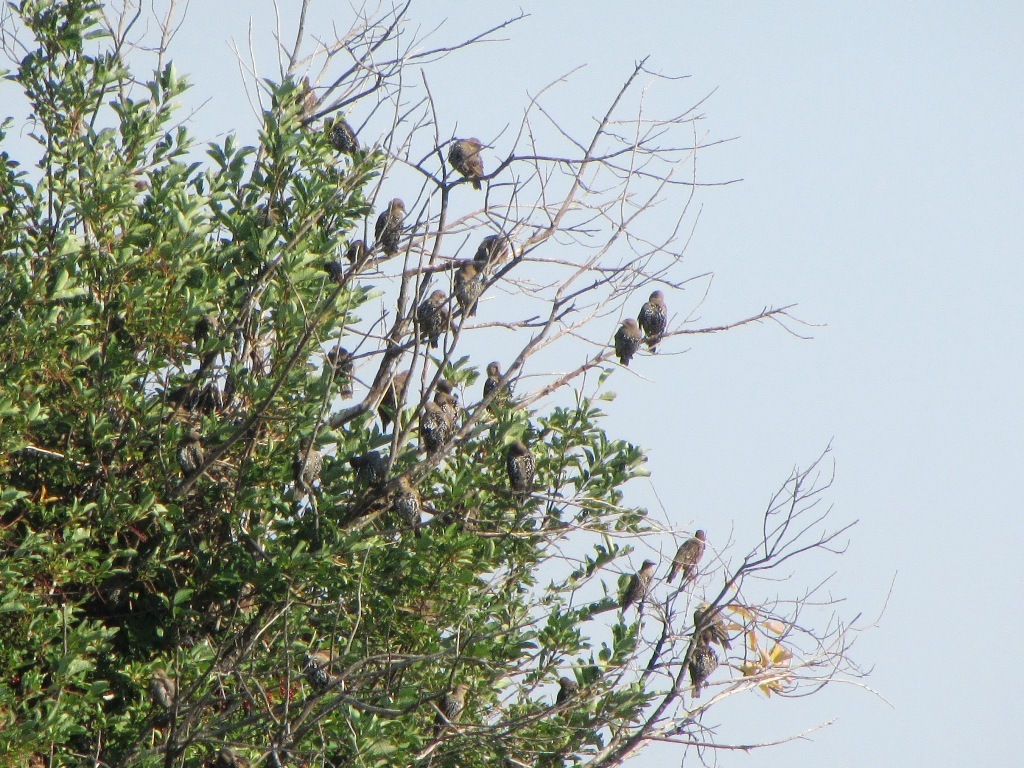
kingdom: Animalia
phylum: Chordata
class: Aves
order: Passeriformes
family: Sturnidae
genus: Sturnus
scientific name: Sturnus vulgaris
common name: Common starling
